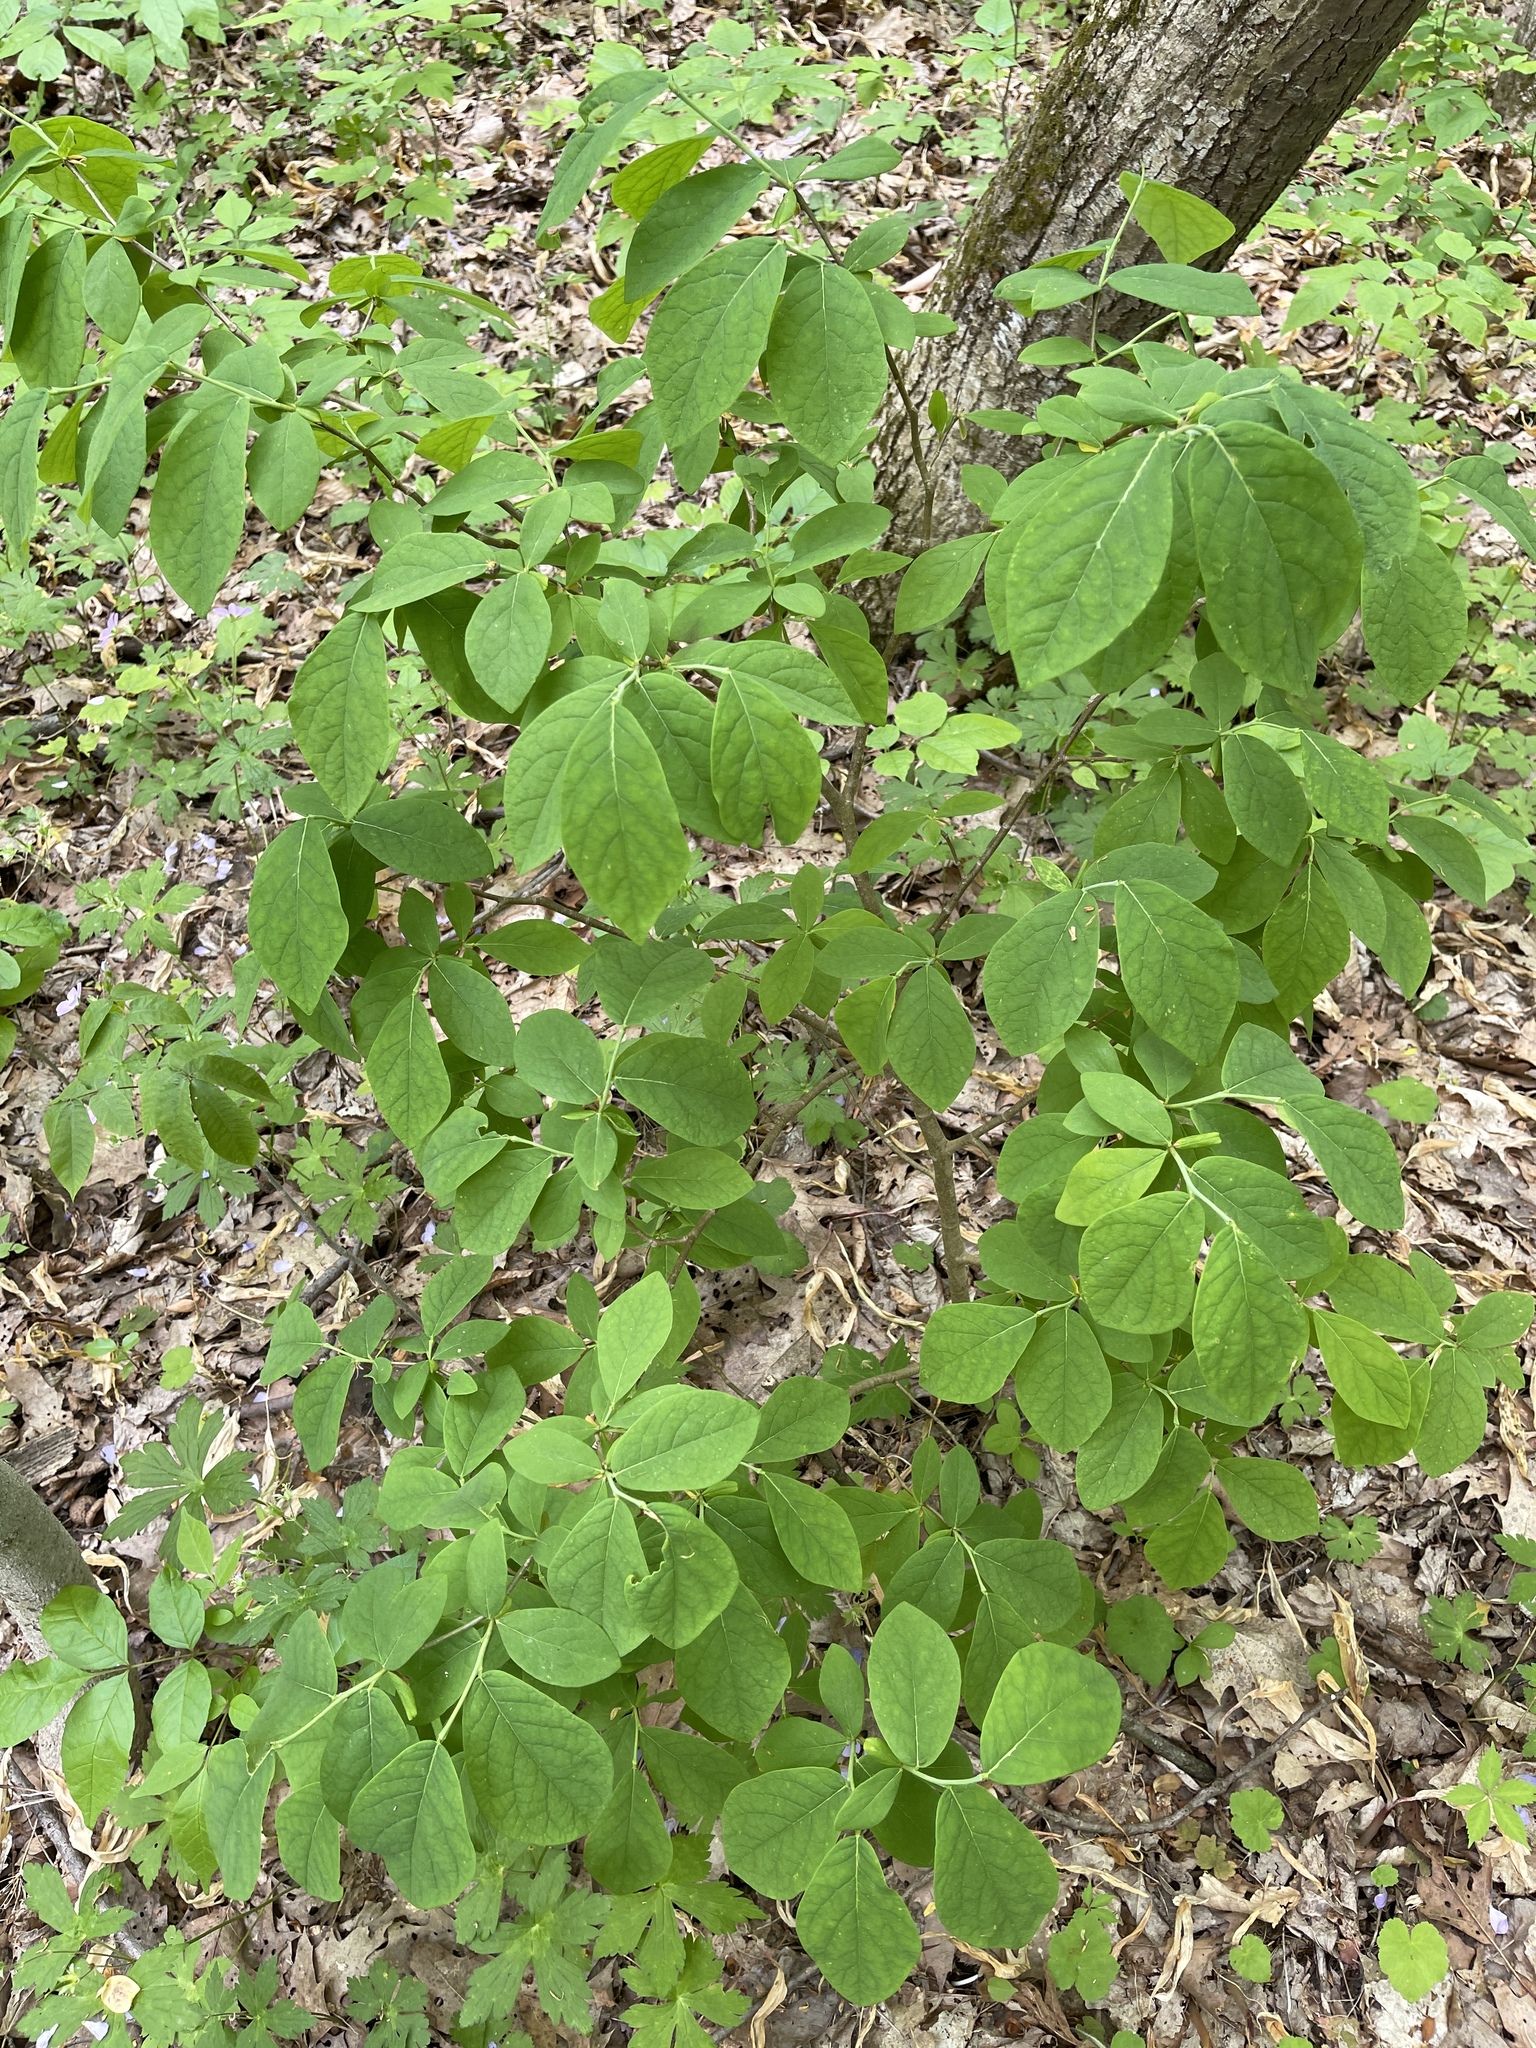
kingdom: Plantae
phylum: Tracheophyta
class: Magnoliopsida
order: Malvales
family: Thymelaeaceae
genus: Dirca
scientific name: Dirca palustris
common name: Leatherwood
